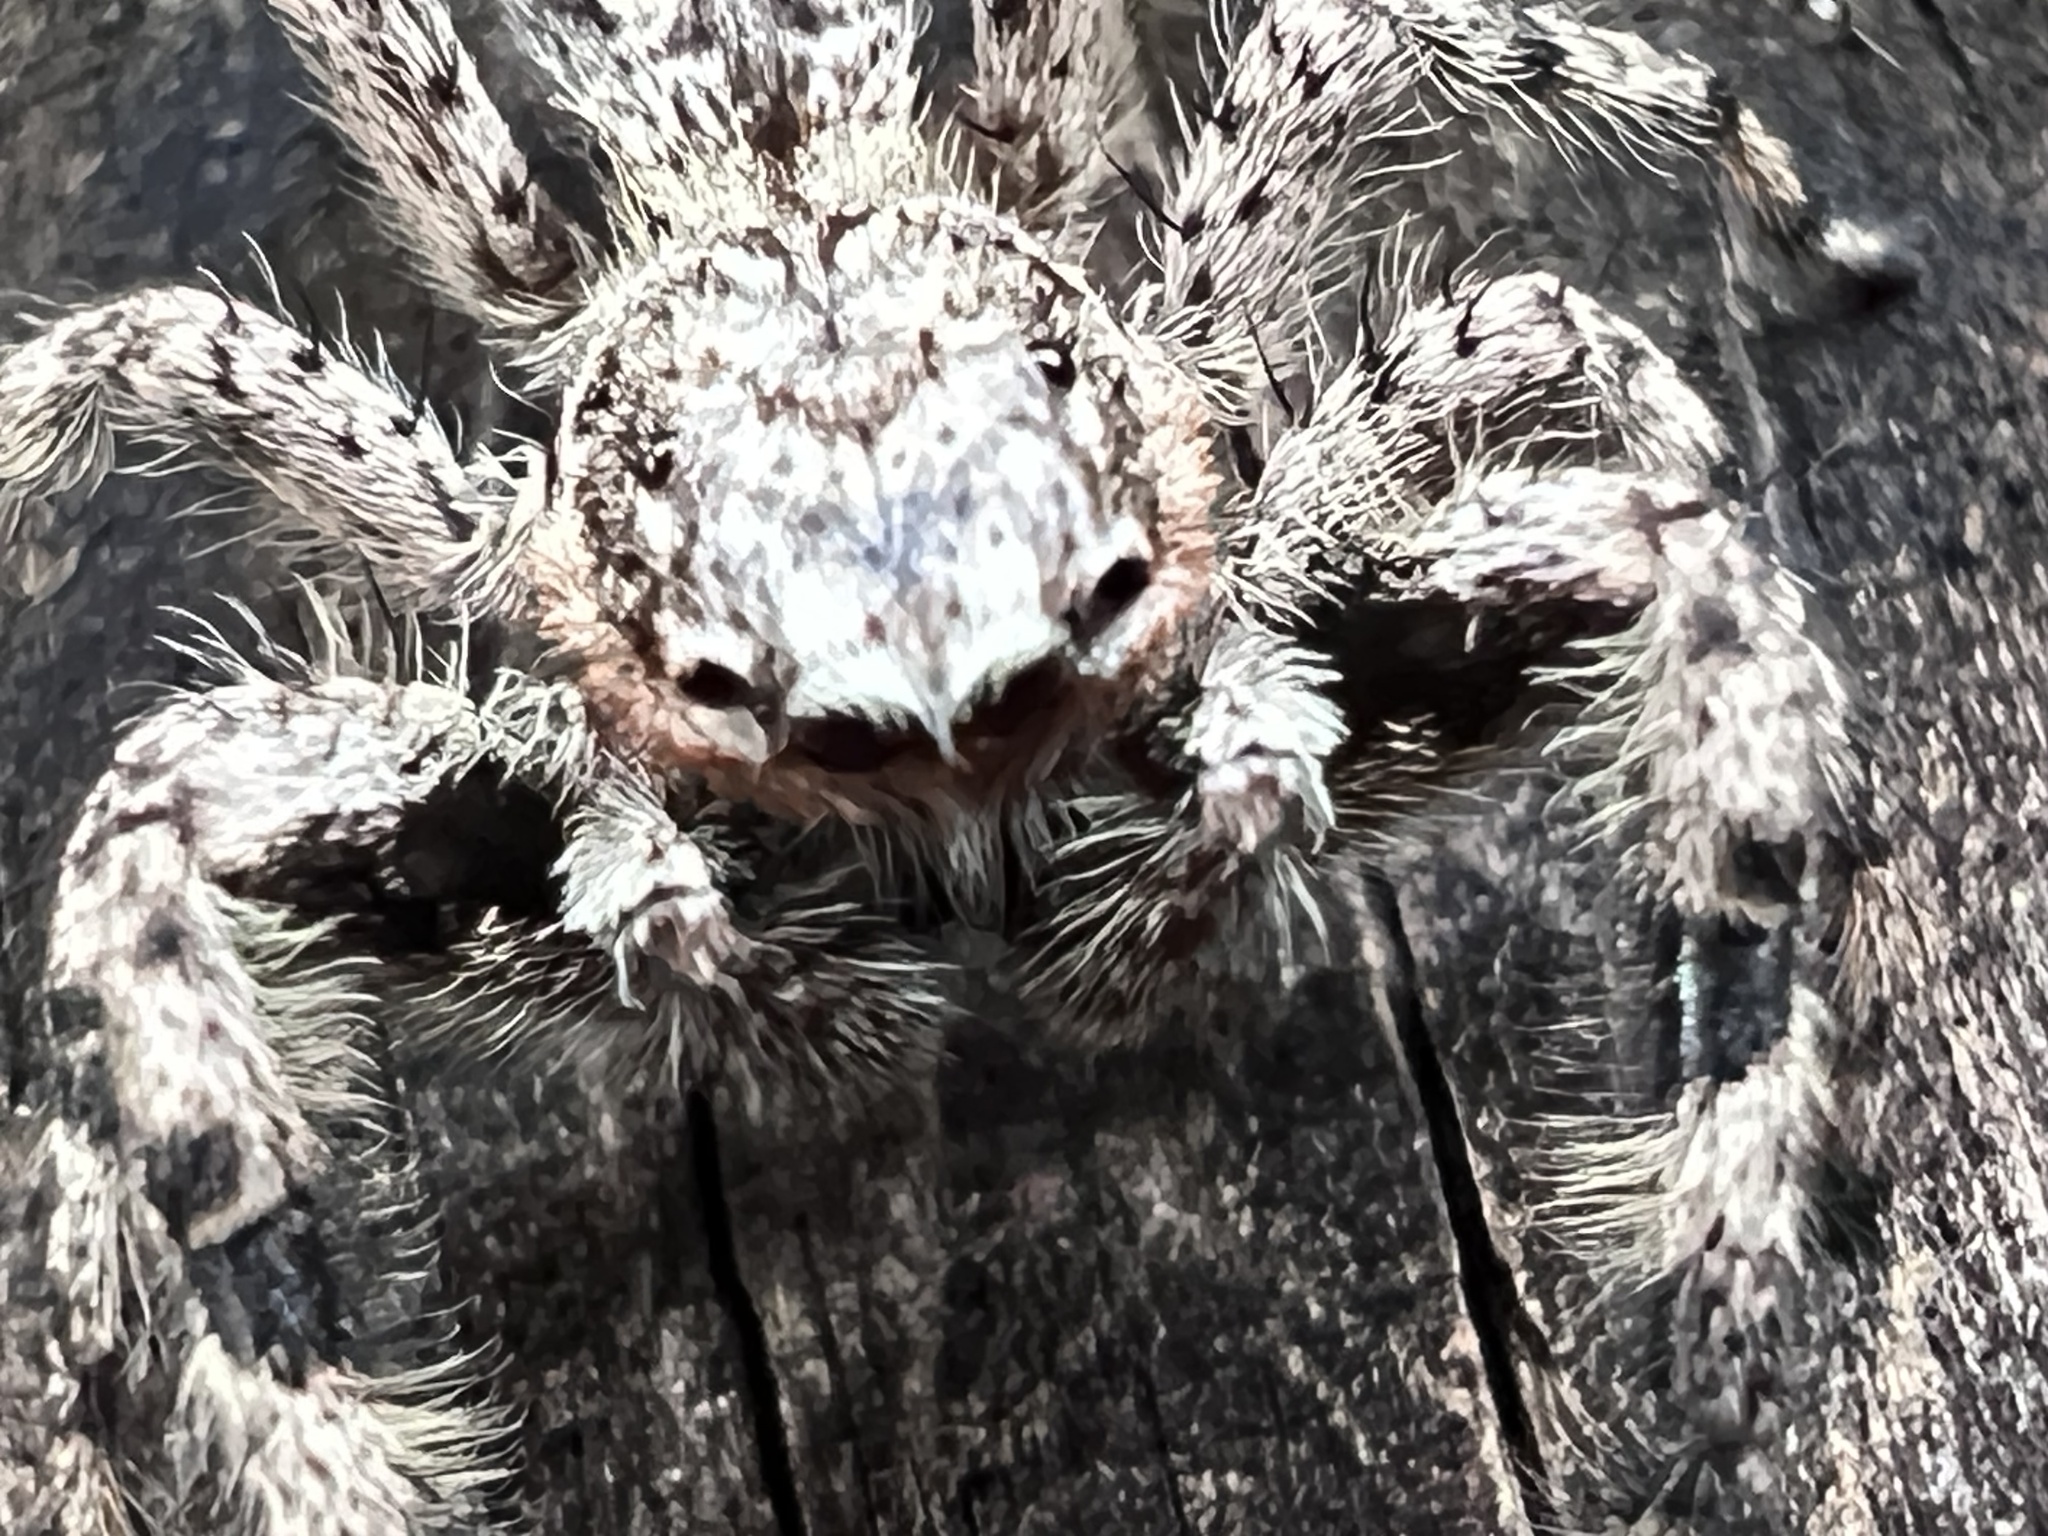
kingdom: Animalia
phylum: Arthropoda
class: Arachnida
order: Araneae
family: Salticidae
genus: Platycryptus
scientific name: Platycryptus undatus
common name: Tan jumping spider
